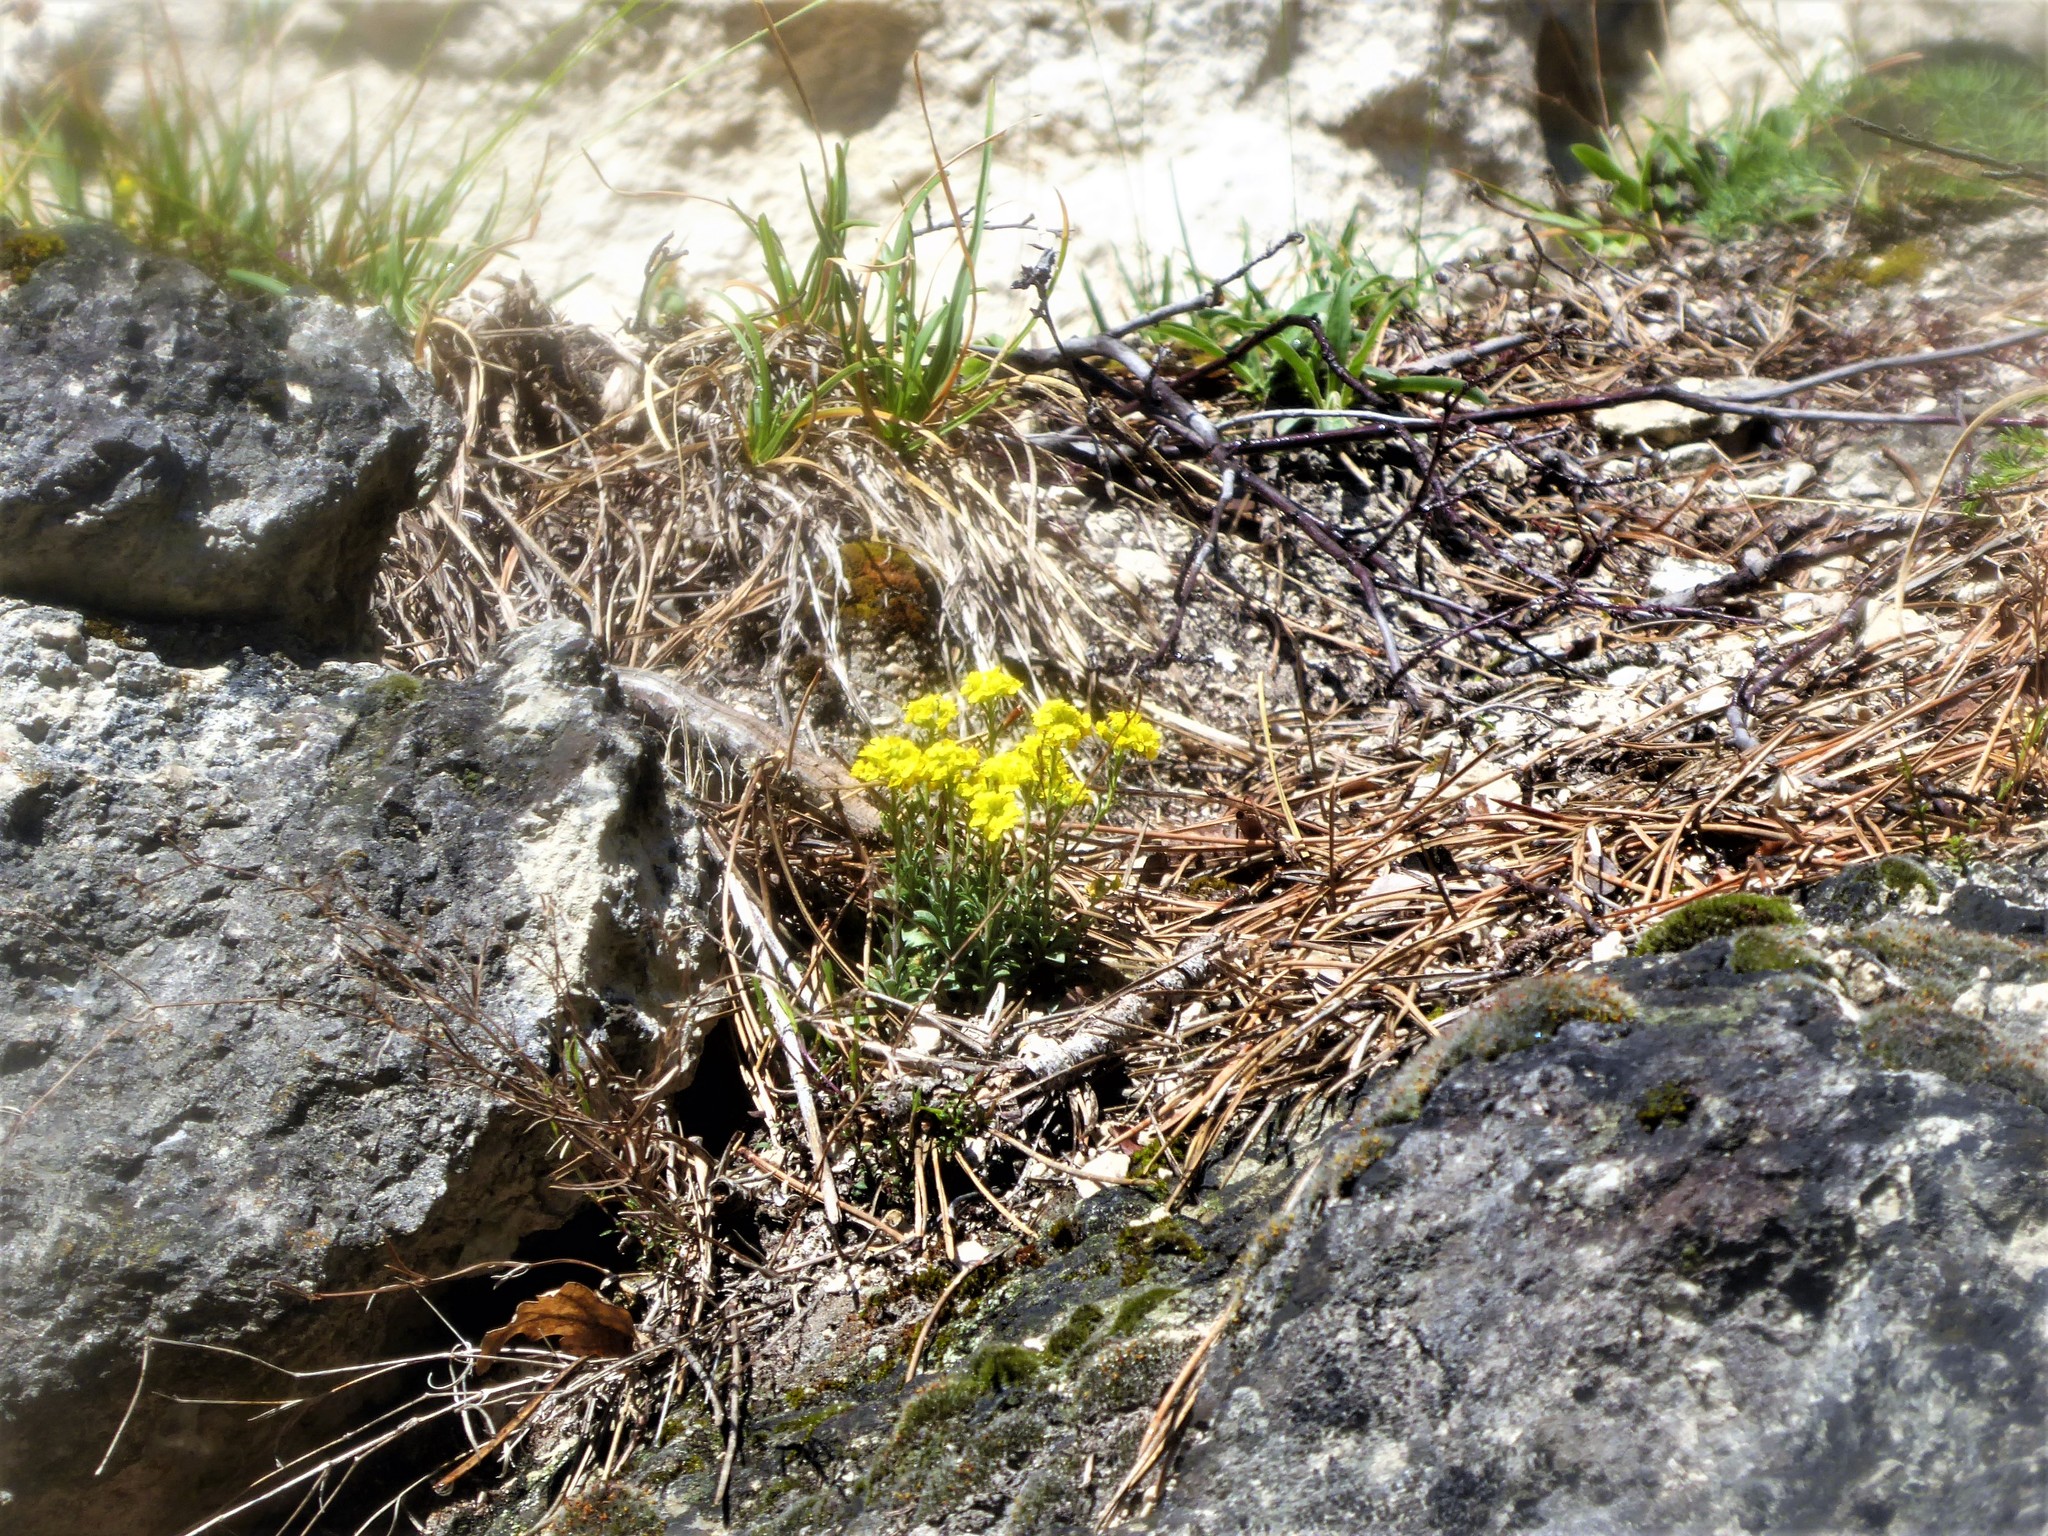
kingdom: Plantae
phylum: Tracheophyta
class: Magnoliopsida
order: Brassicales
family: Brassicaceae
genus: Alyssum
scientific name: Alyssum gmelinii
